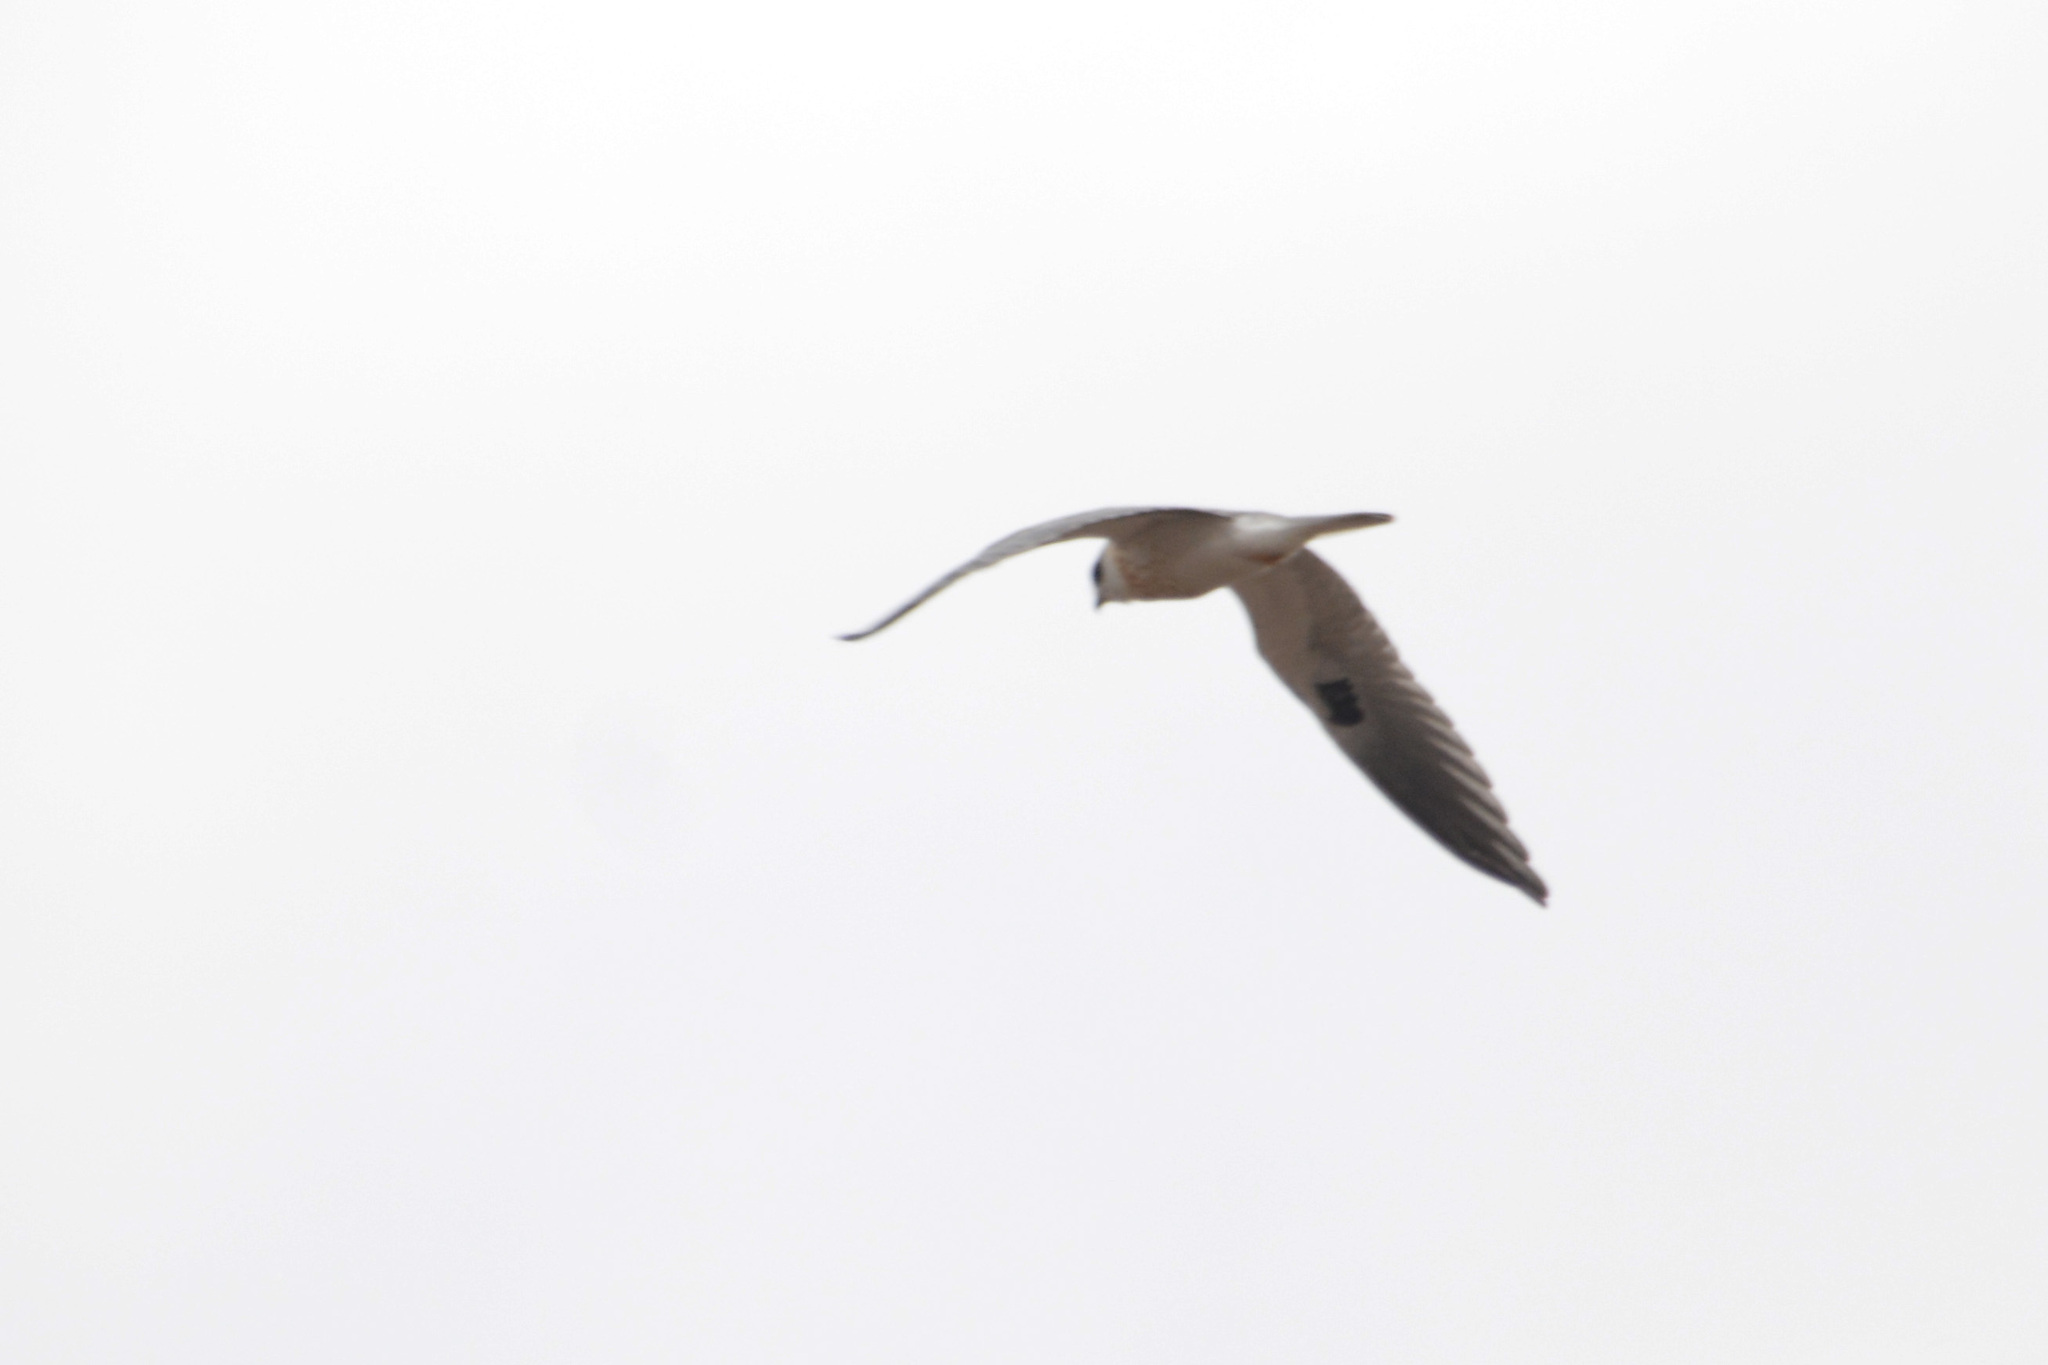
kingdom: Animalia
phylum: Chordata
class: Aves
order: Accipitriformes
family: Accipitridae
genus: Elanus
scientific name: Elanus leucurus
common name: White-tailed kite
